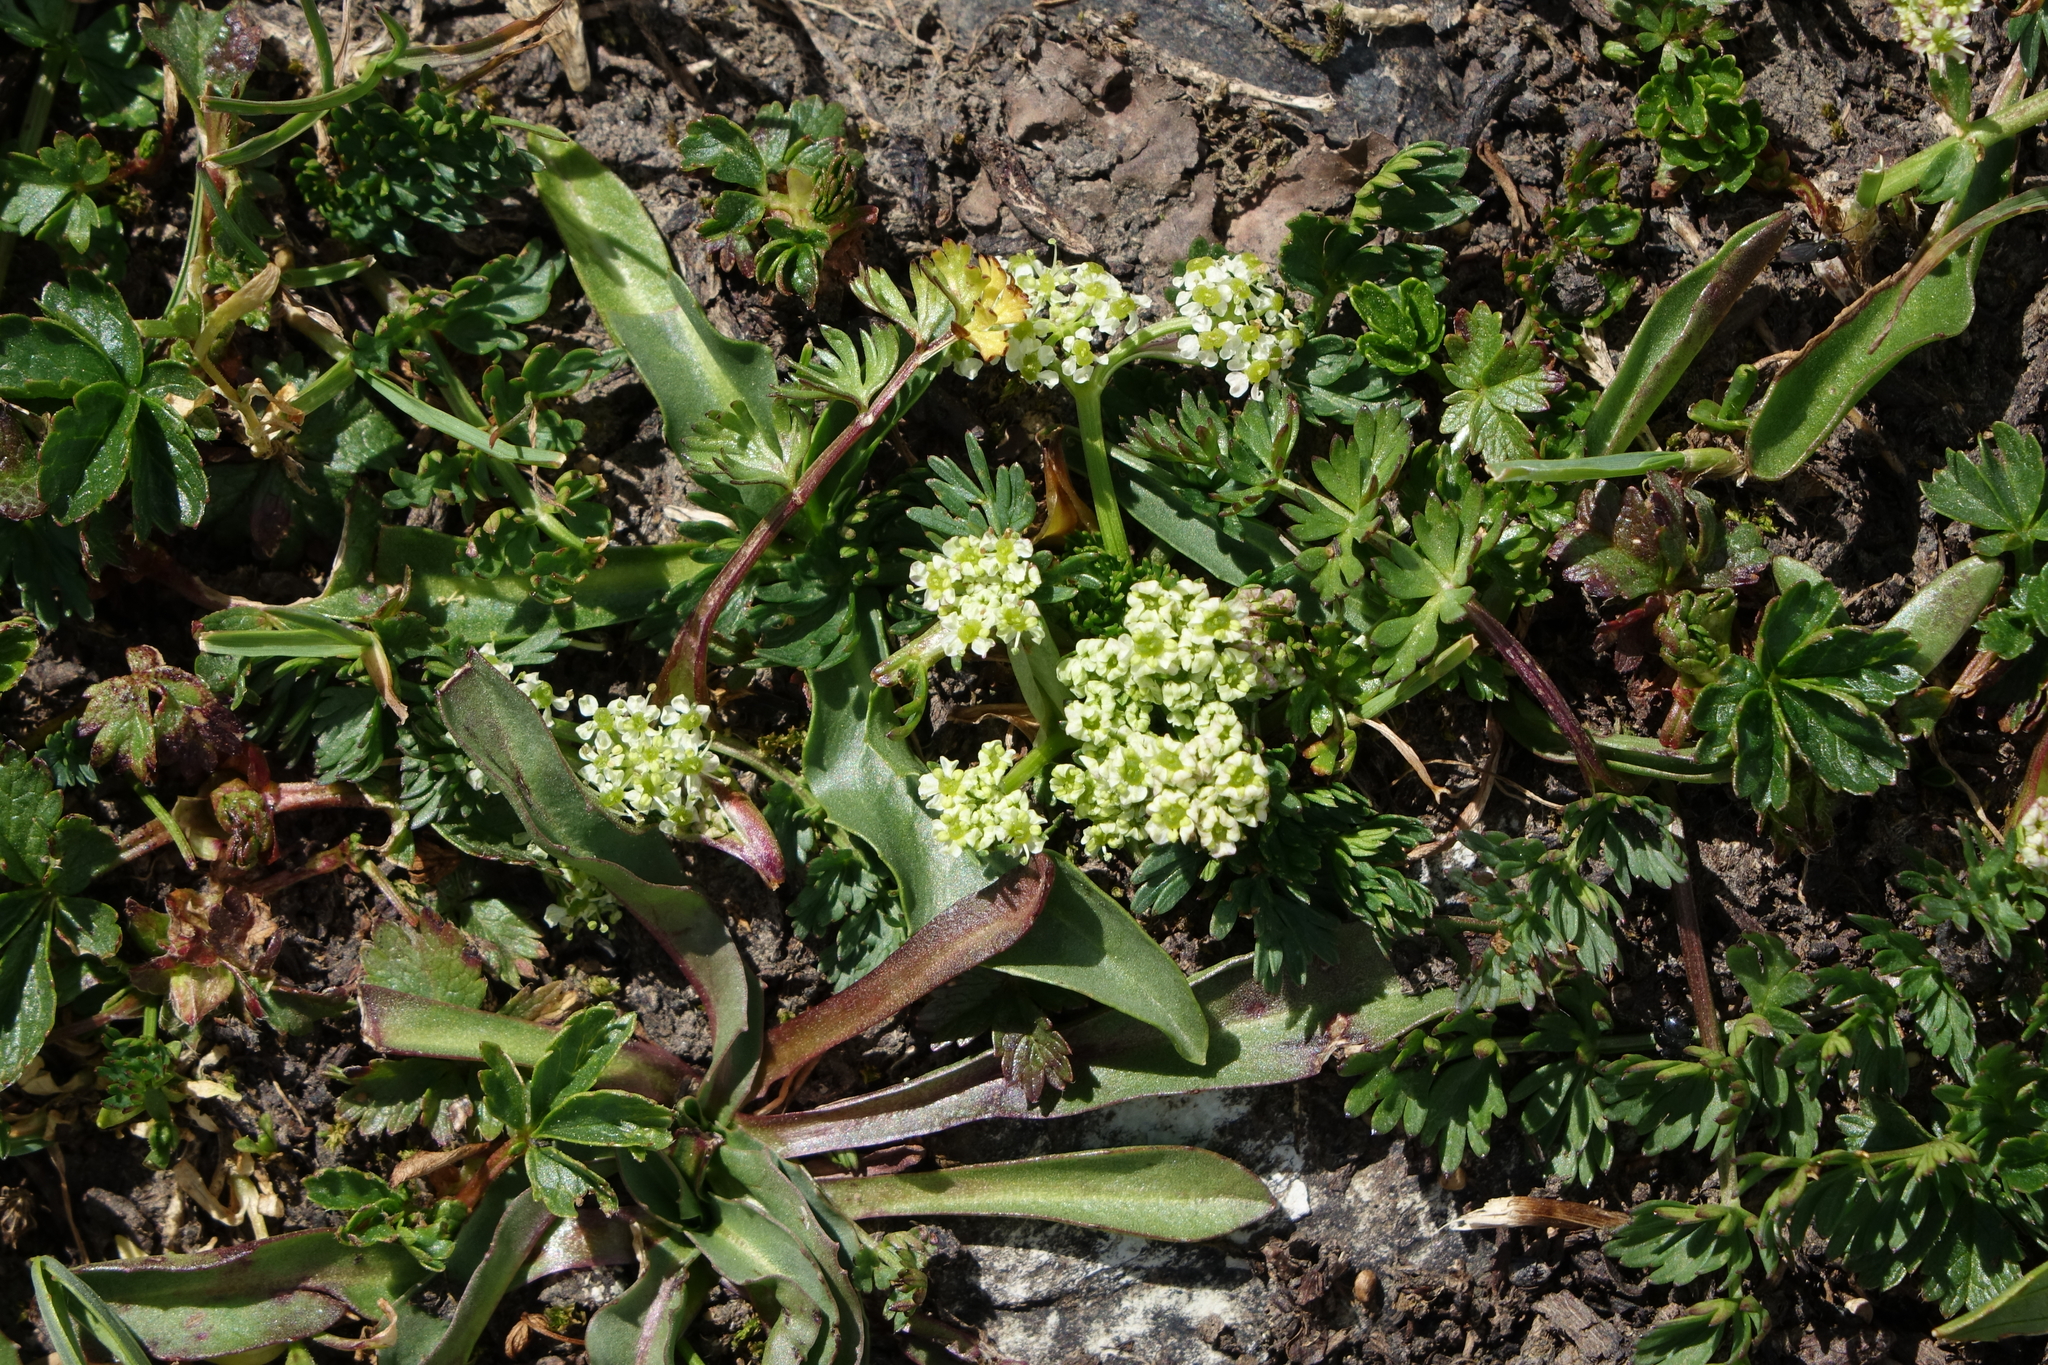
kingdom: Plantae
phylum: Tracheophyta
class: Magnoliopsida
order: Apiales
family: Apiaceae
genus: Chamaesciadium
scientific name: Chamaesciadium acaule
